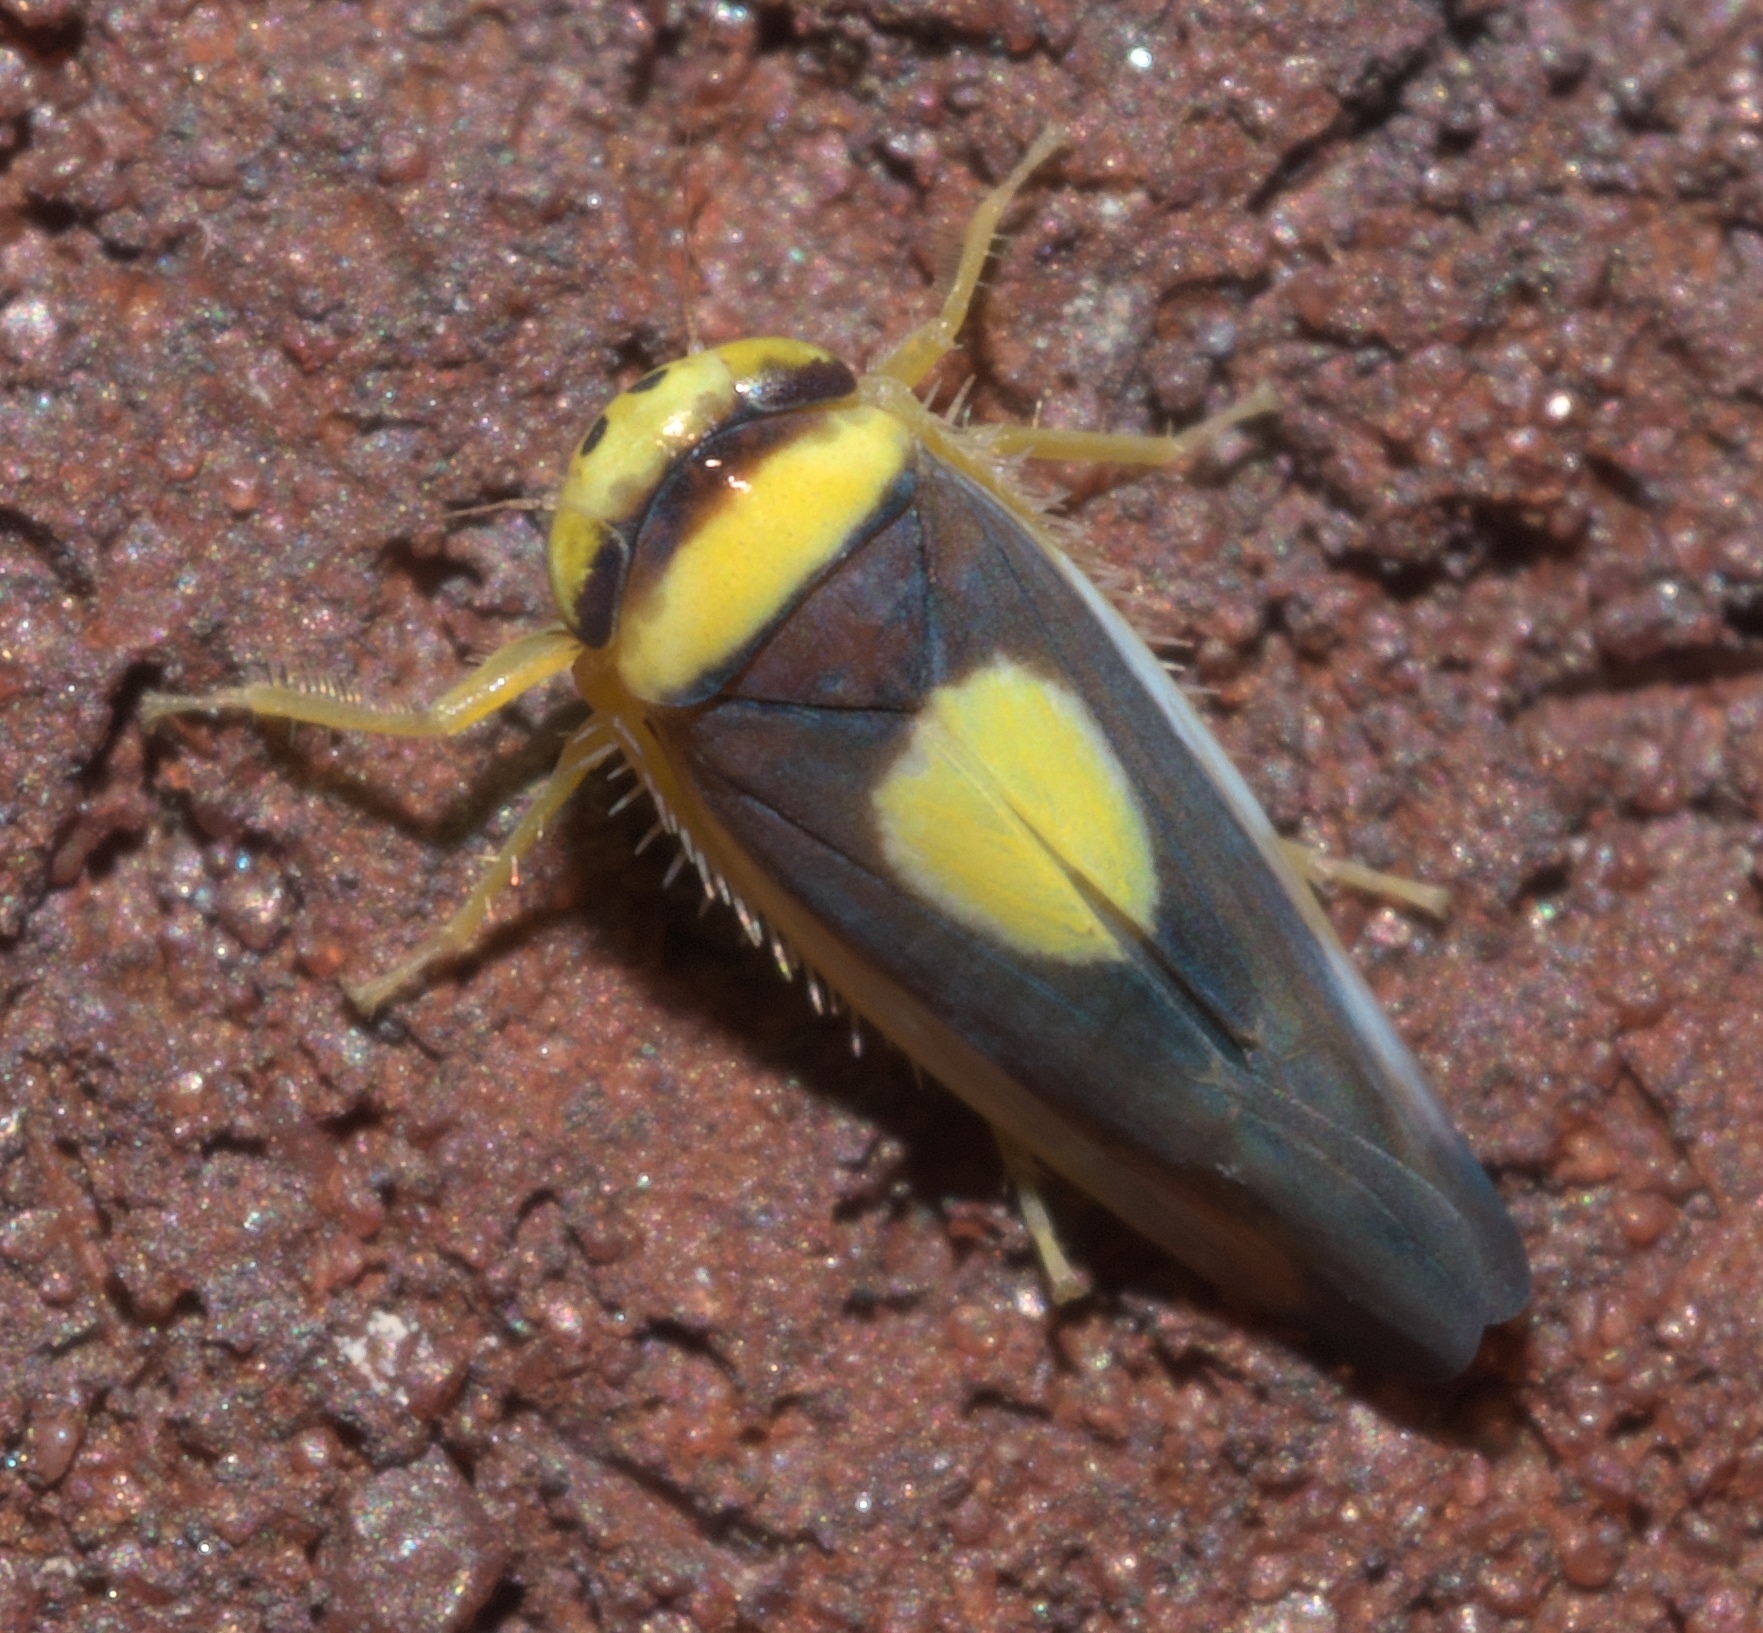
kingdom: Animalia
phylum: Arthropoda
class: Insecta
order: Hemiptera
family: Cicadellidae
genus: Colladonus
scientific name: Colladonus clitellarius
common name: The saddleback leafhopper
